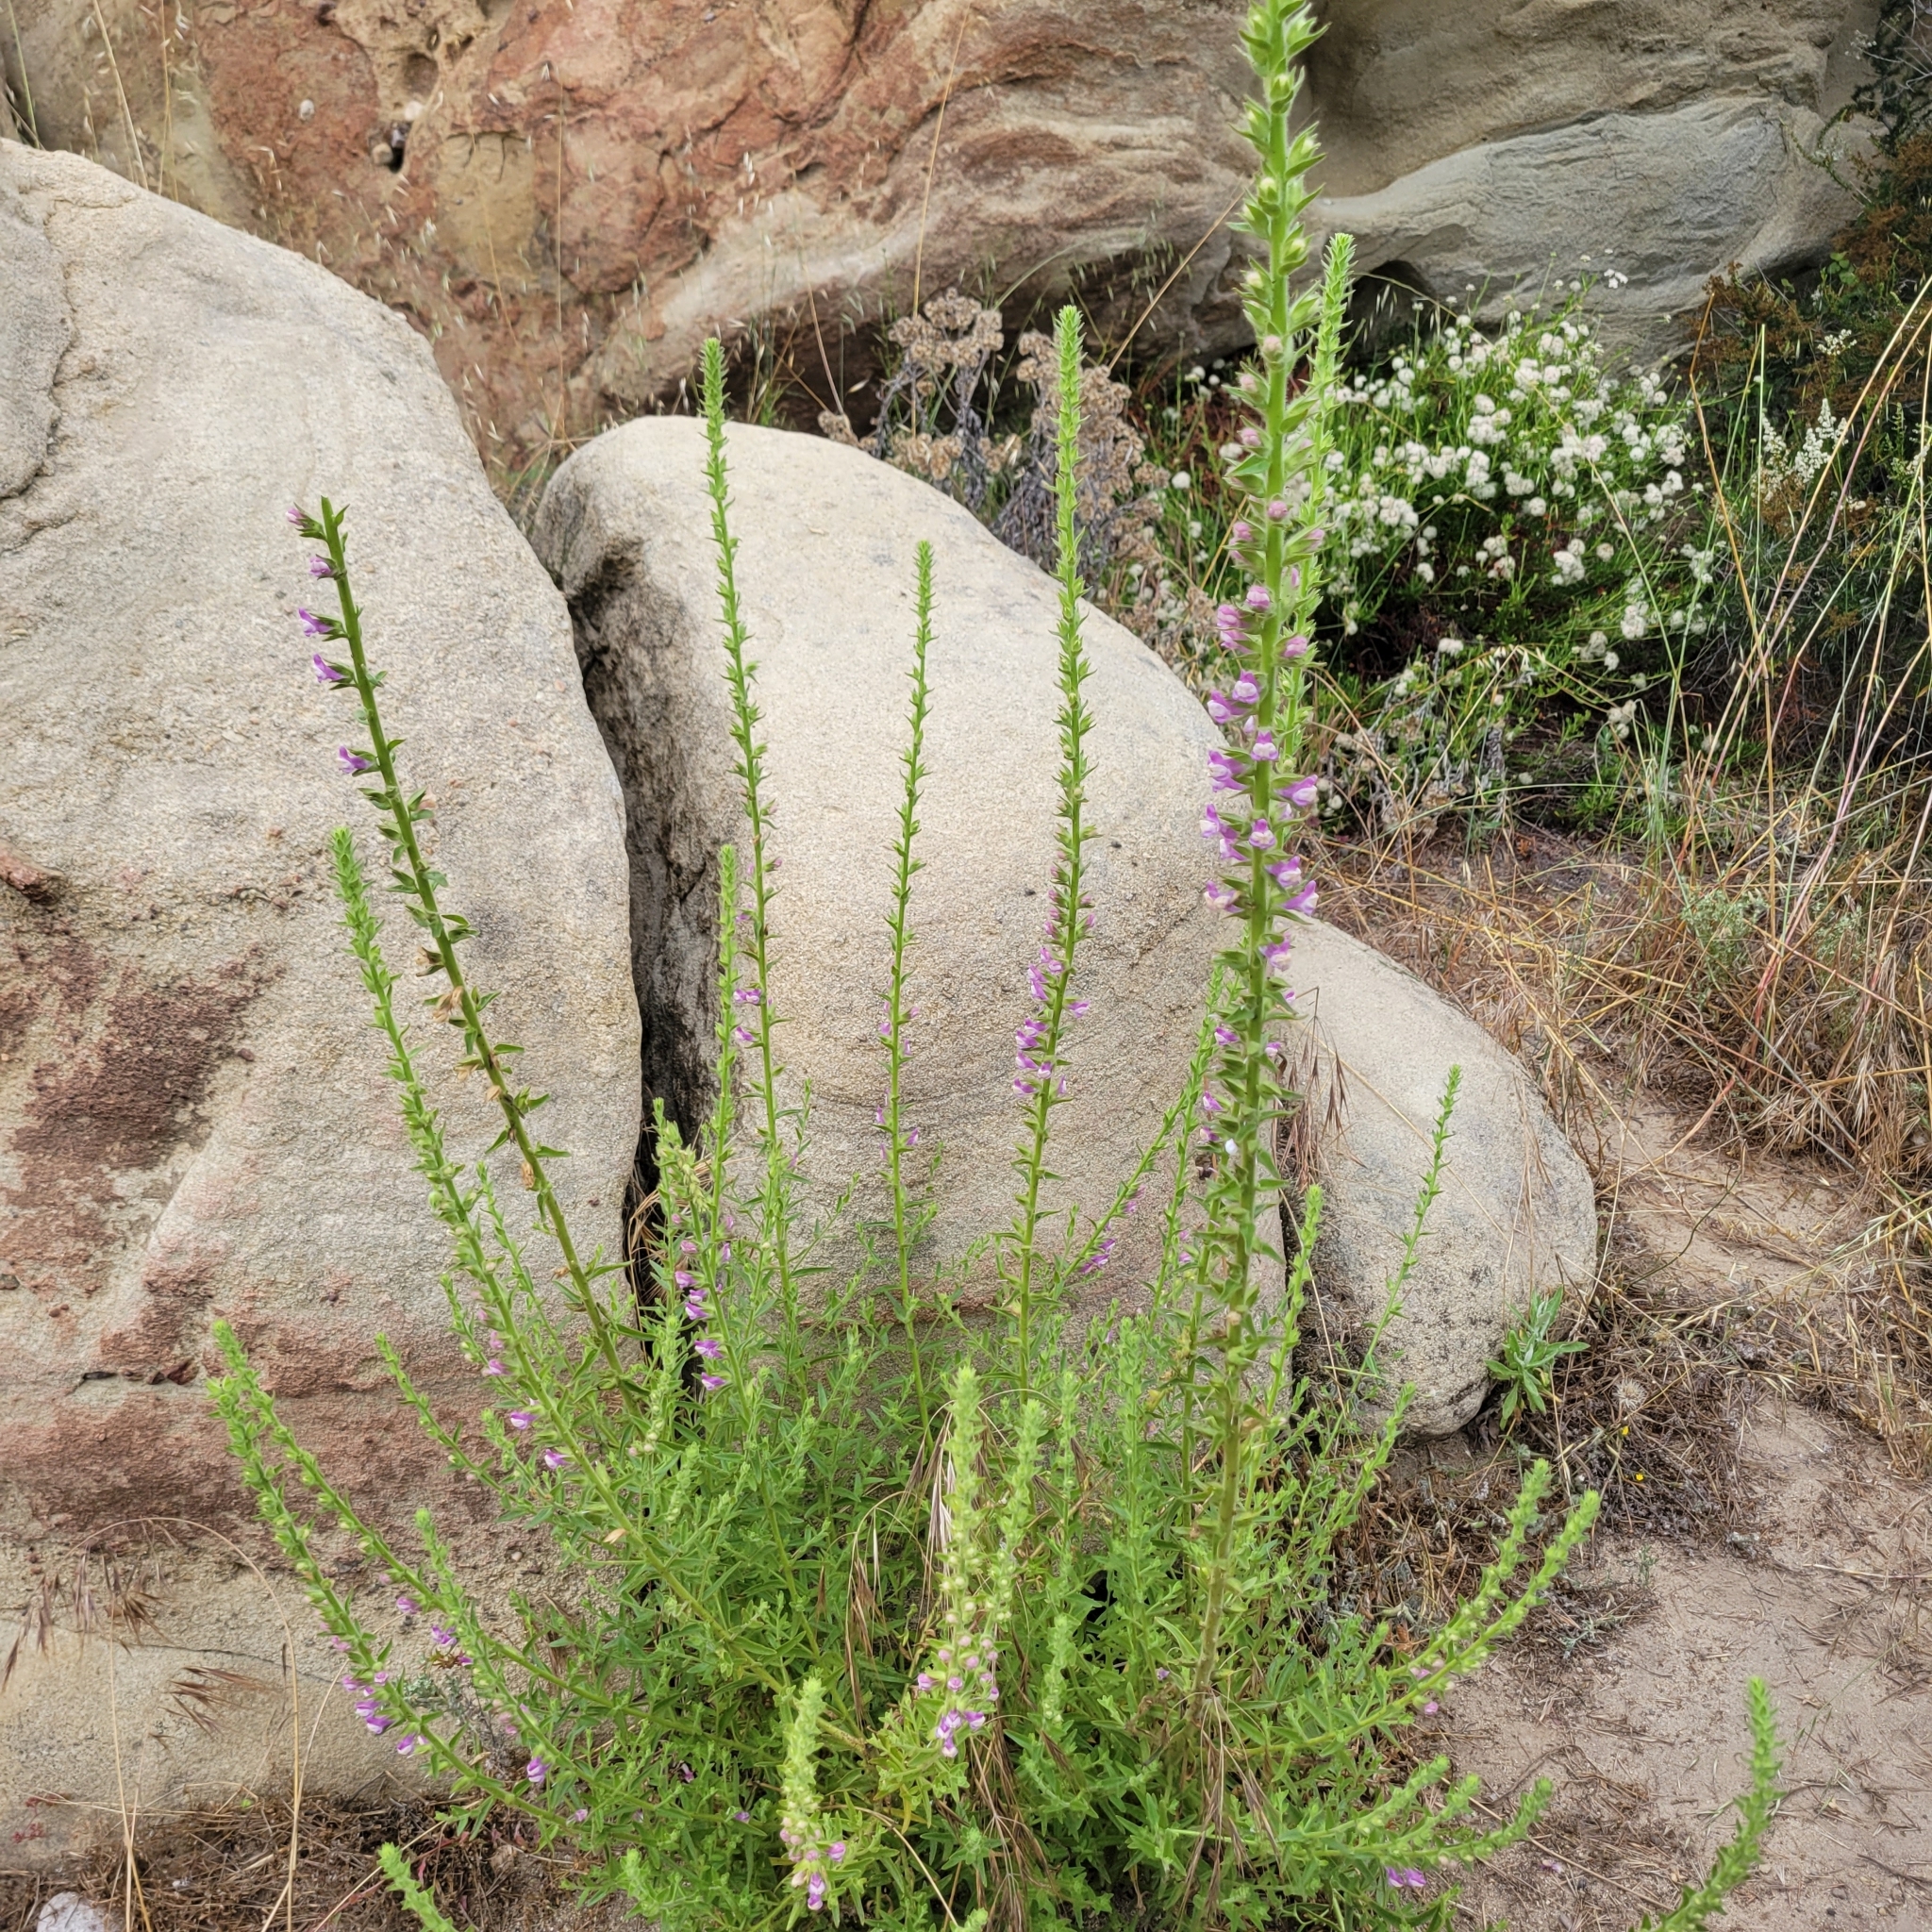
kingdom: Plantae
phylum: Tracheophyta
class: Magnoliopsida
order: Lamiales
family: Plantaginaceae
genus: Sairocarpus
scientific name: Sairocarpus multiflorus
